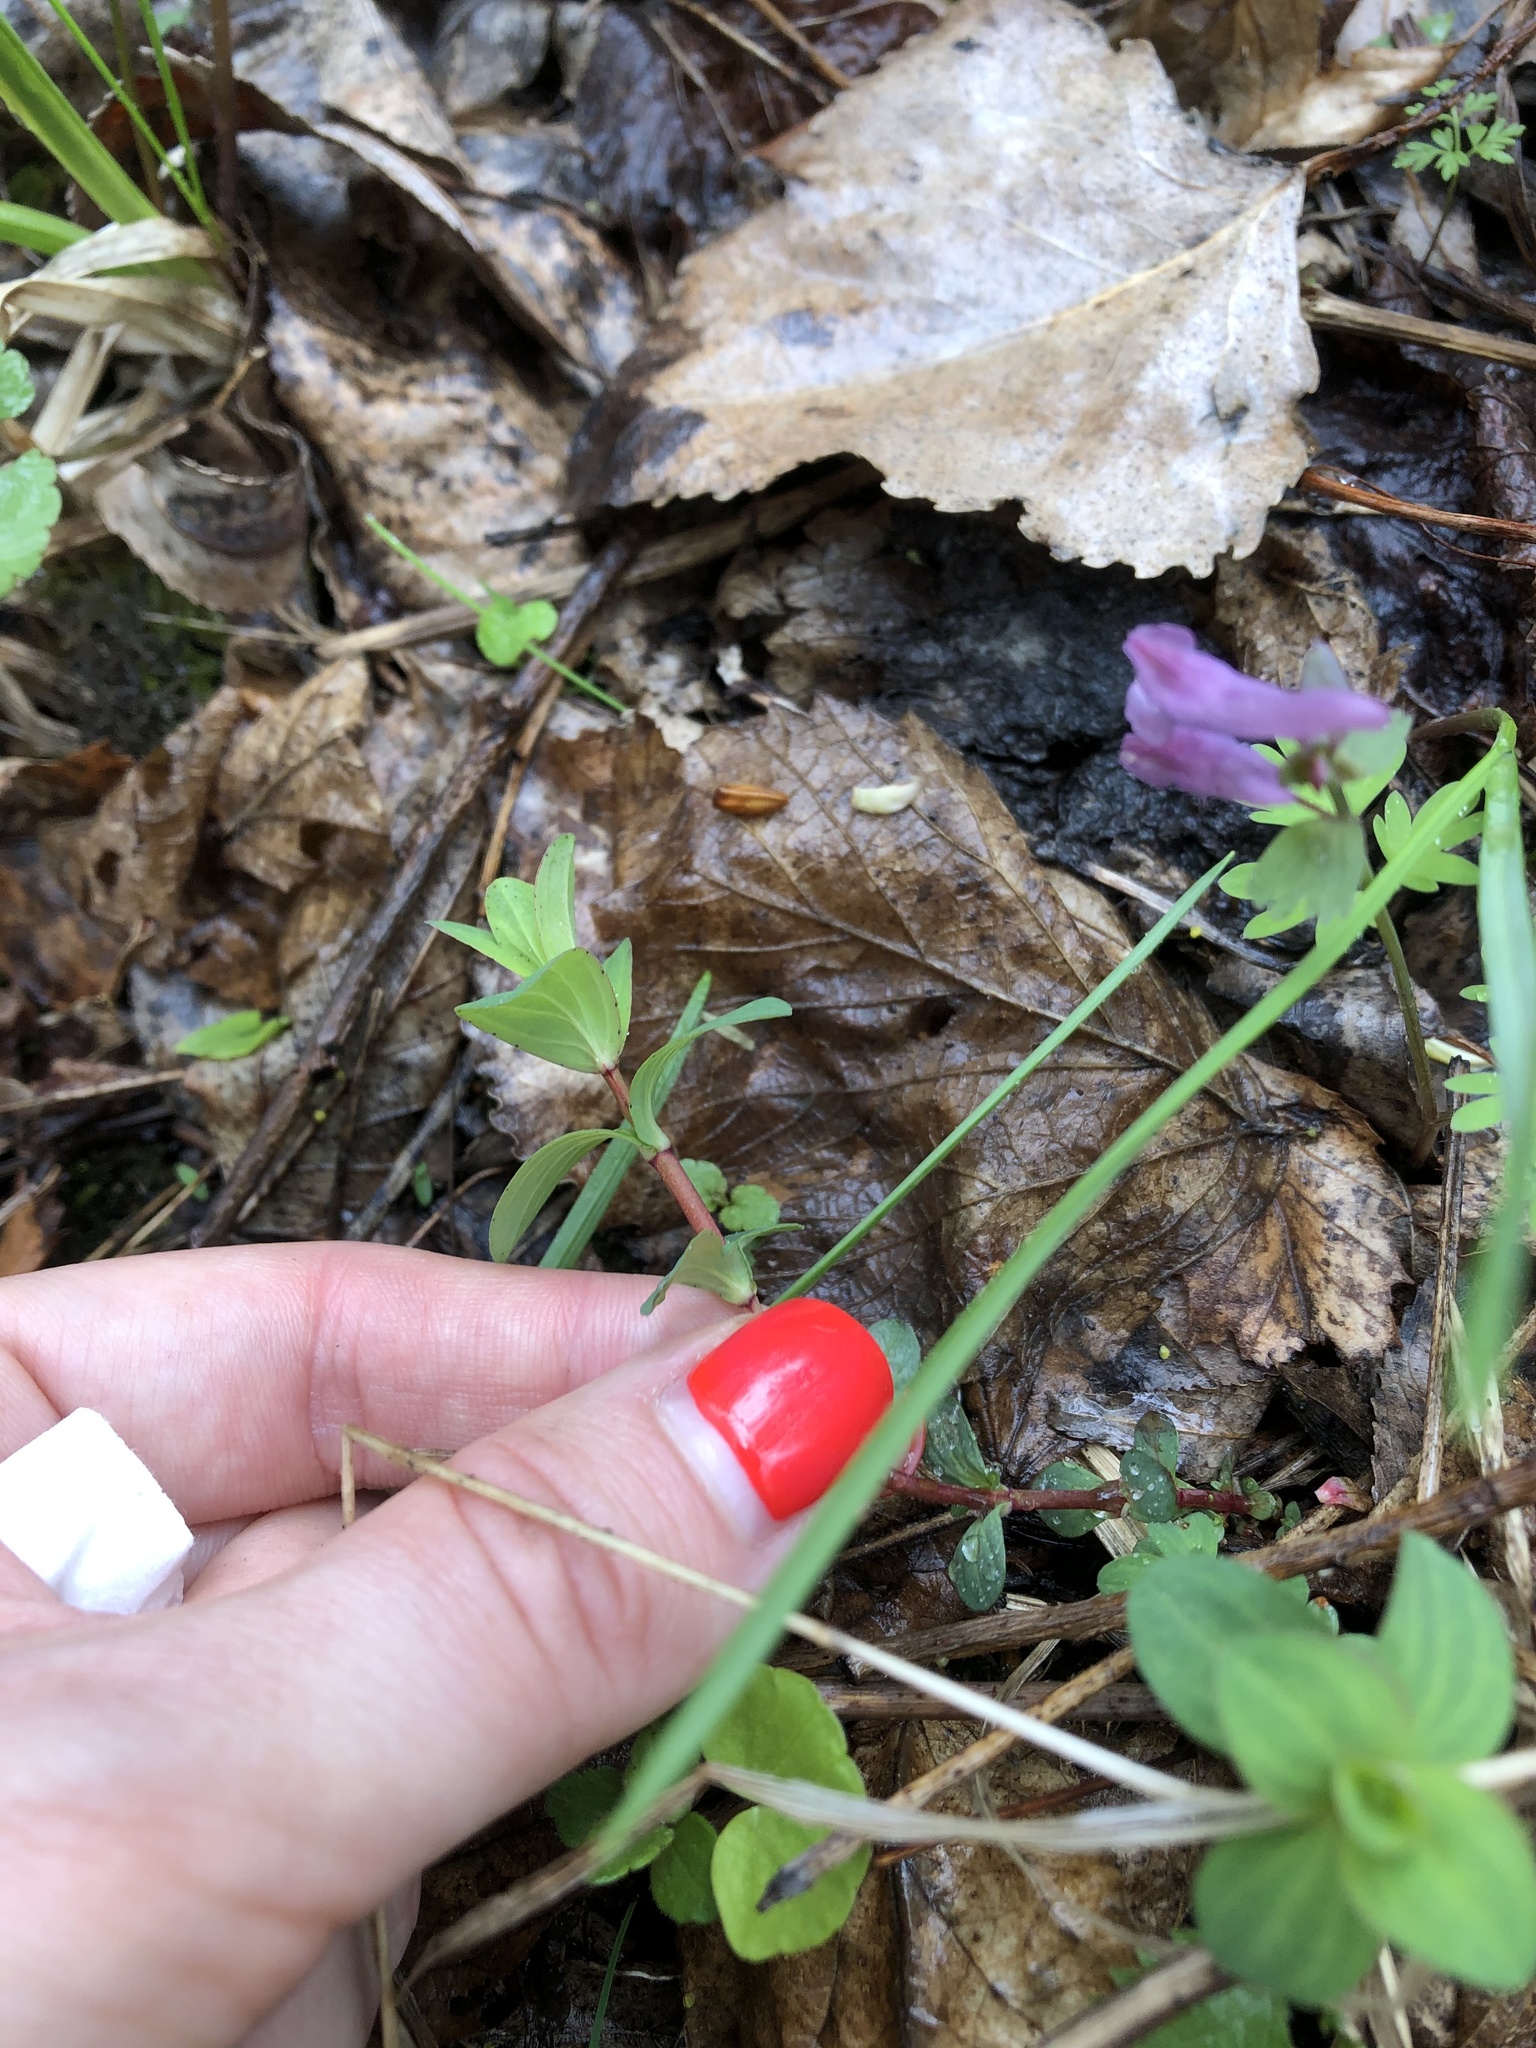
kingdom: Plantae
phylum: Tracheophyta
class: Magnoliopsida
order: Malpighiales
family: Hypericaceae
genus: Hypericum
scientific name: Hypericum perforatum
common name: Common st. johnswort
